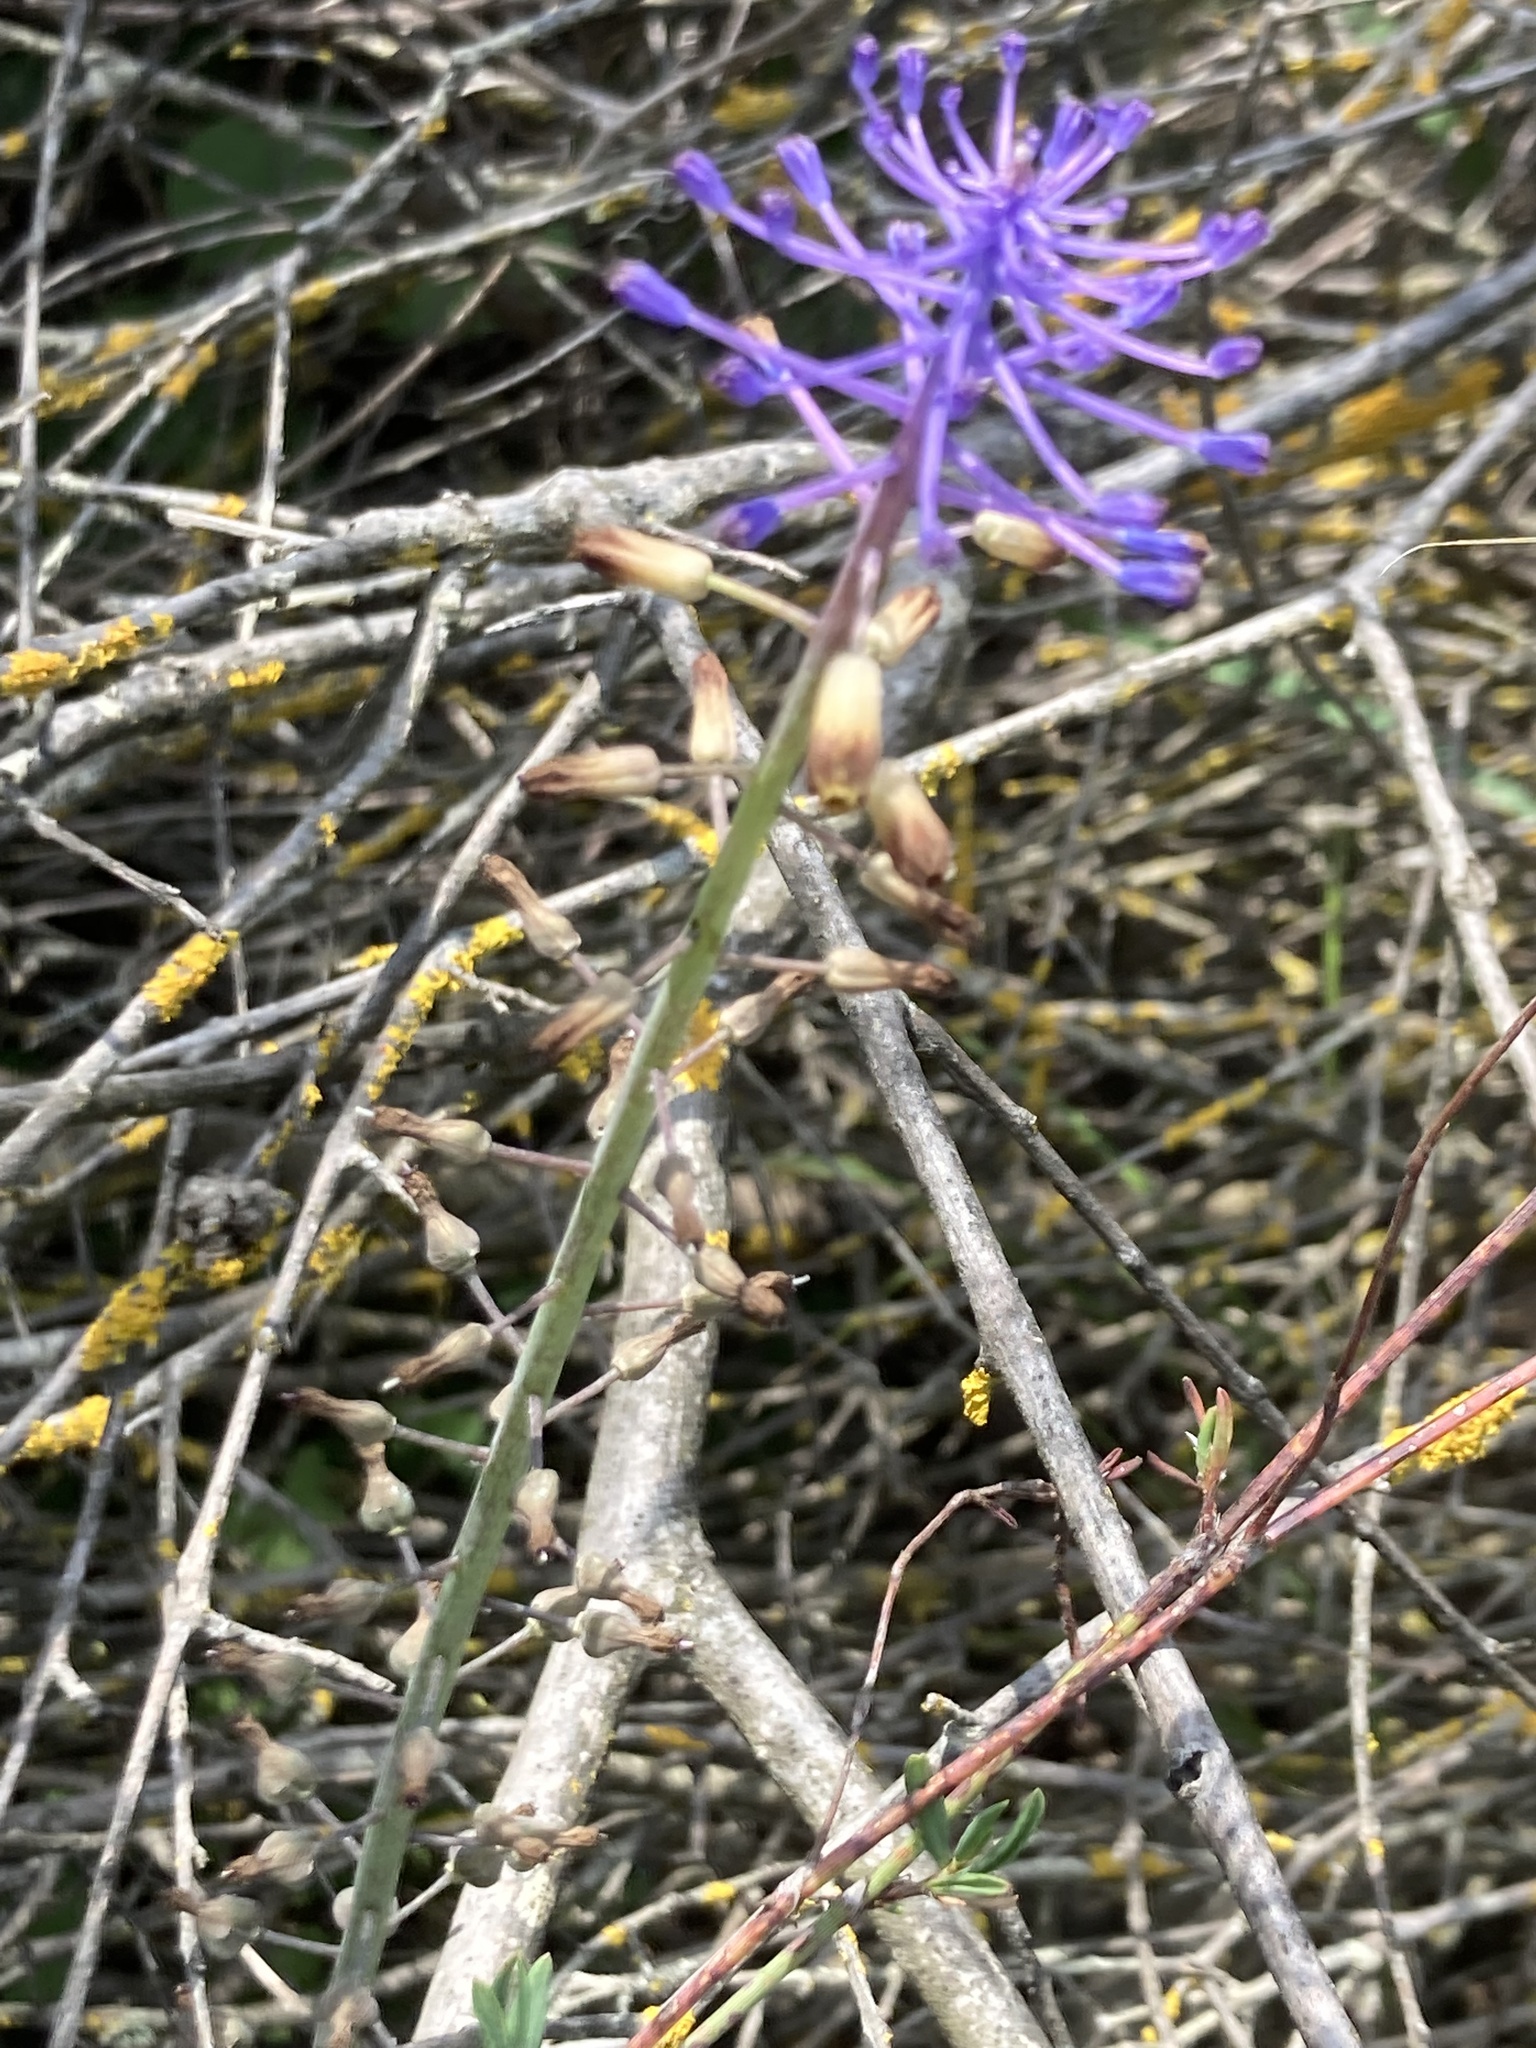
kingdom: Plantae
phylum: Tracheophyta
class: Liliopsida
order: Asparagales
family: Asparagaceae
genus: Muscari
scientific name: Muscari comosum
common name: Tassel hyacinth
